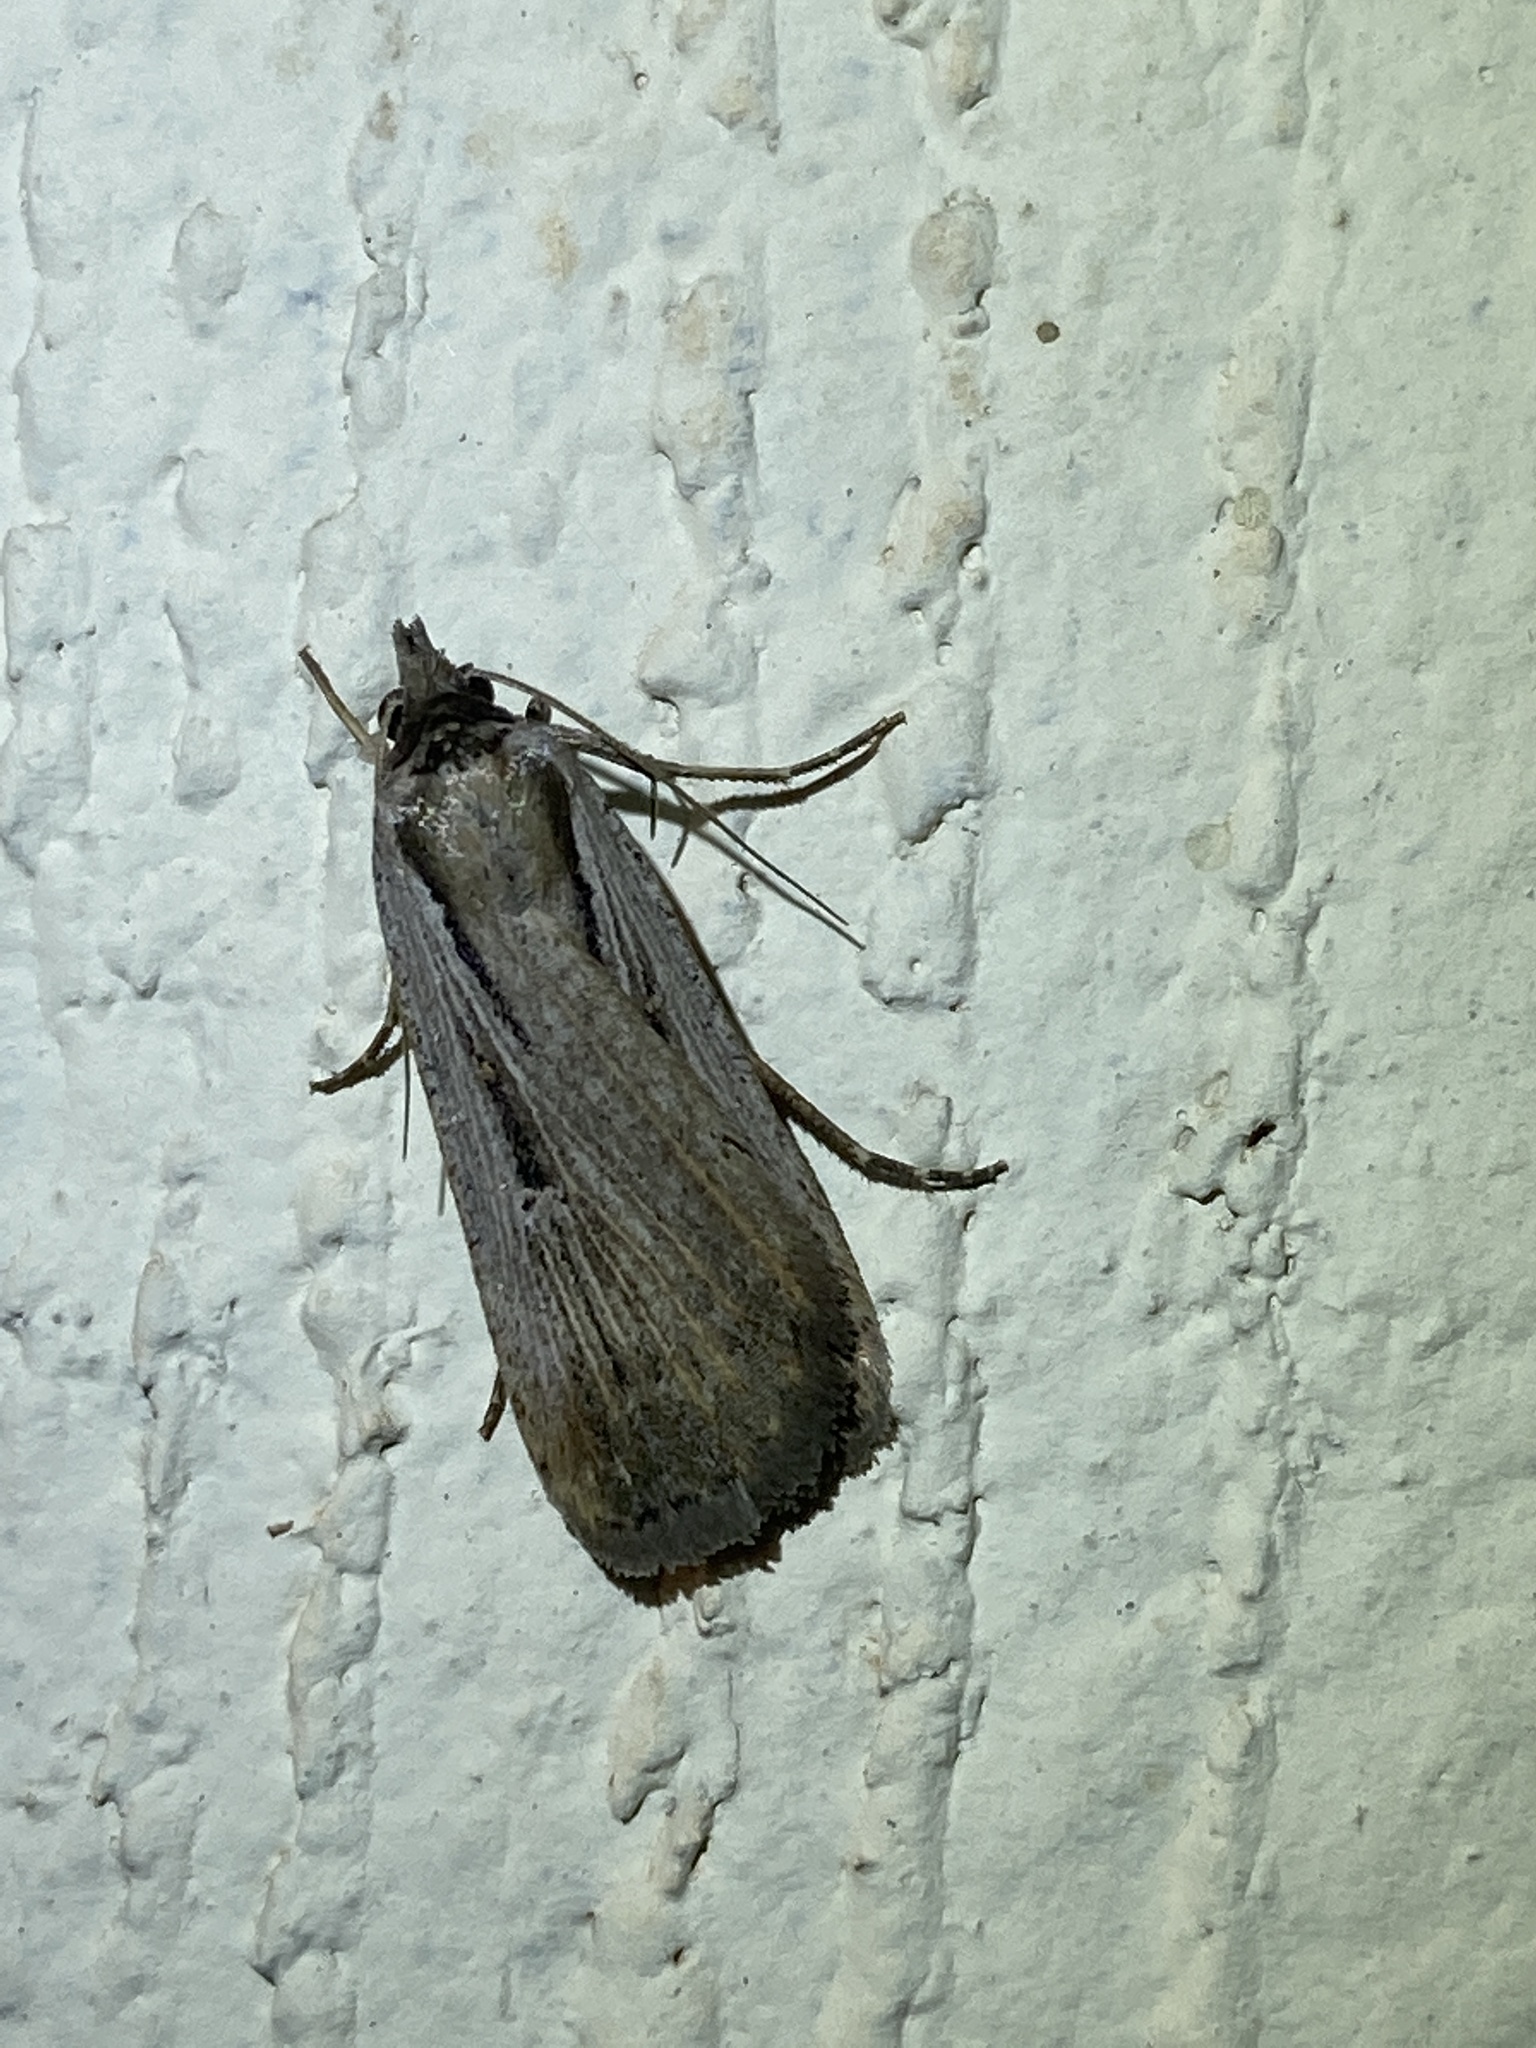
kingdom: Animalia
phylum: Arthropoda
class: Insecta
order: Lepidoptera
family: Noctuidae
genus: Tathorhynchus
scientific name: Tathorhynchus exsiccata
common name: Levant blackneck moth
